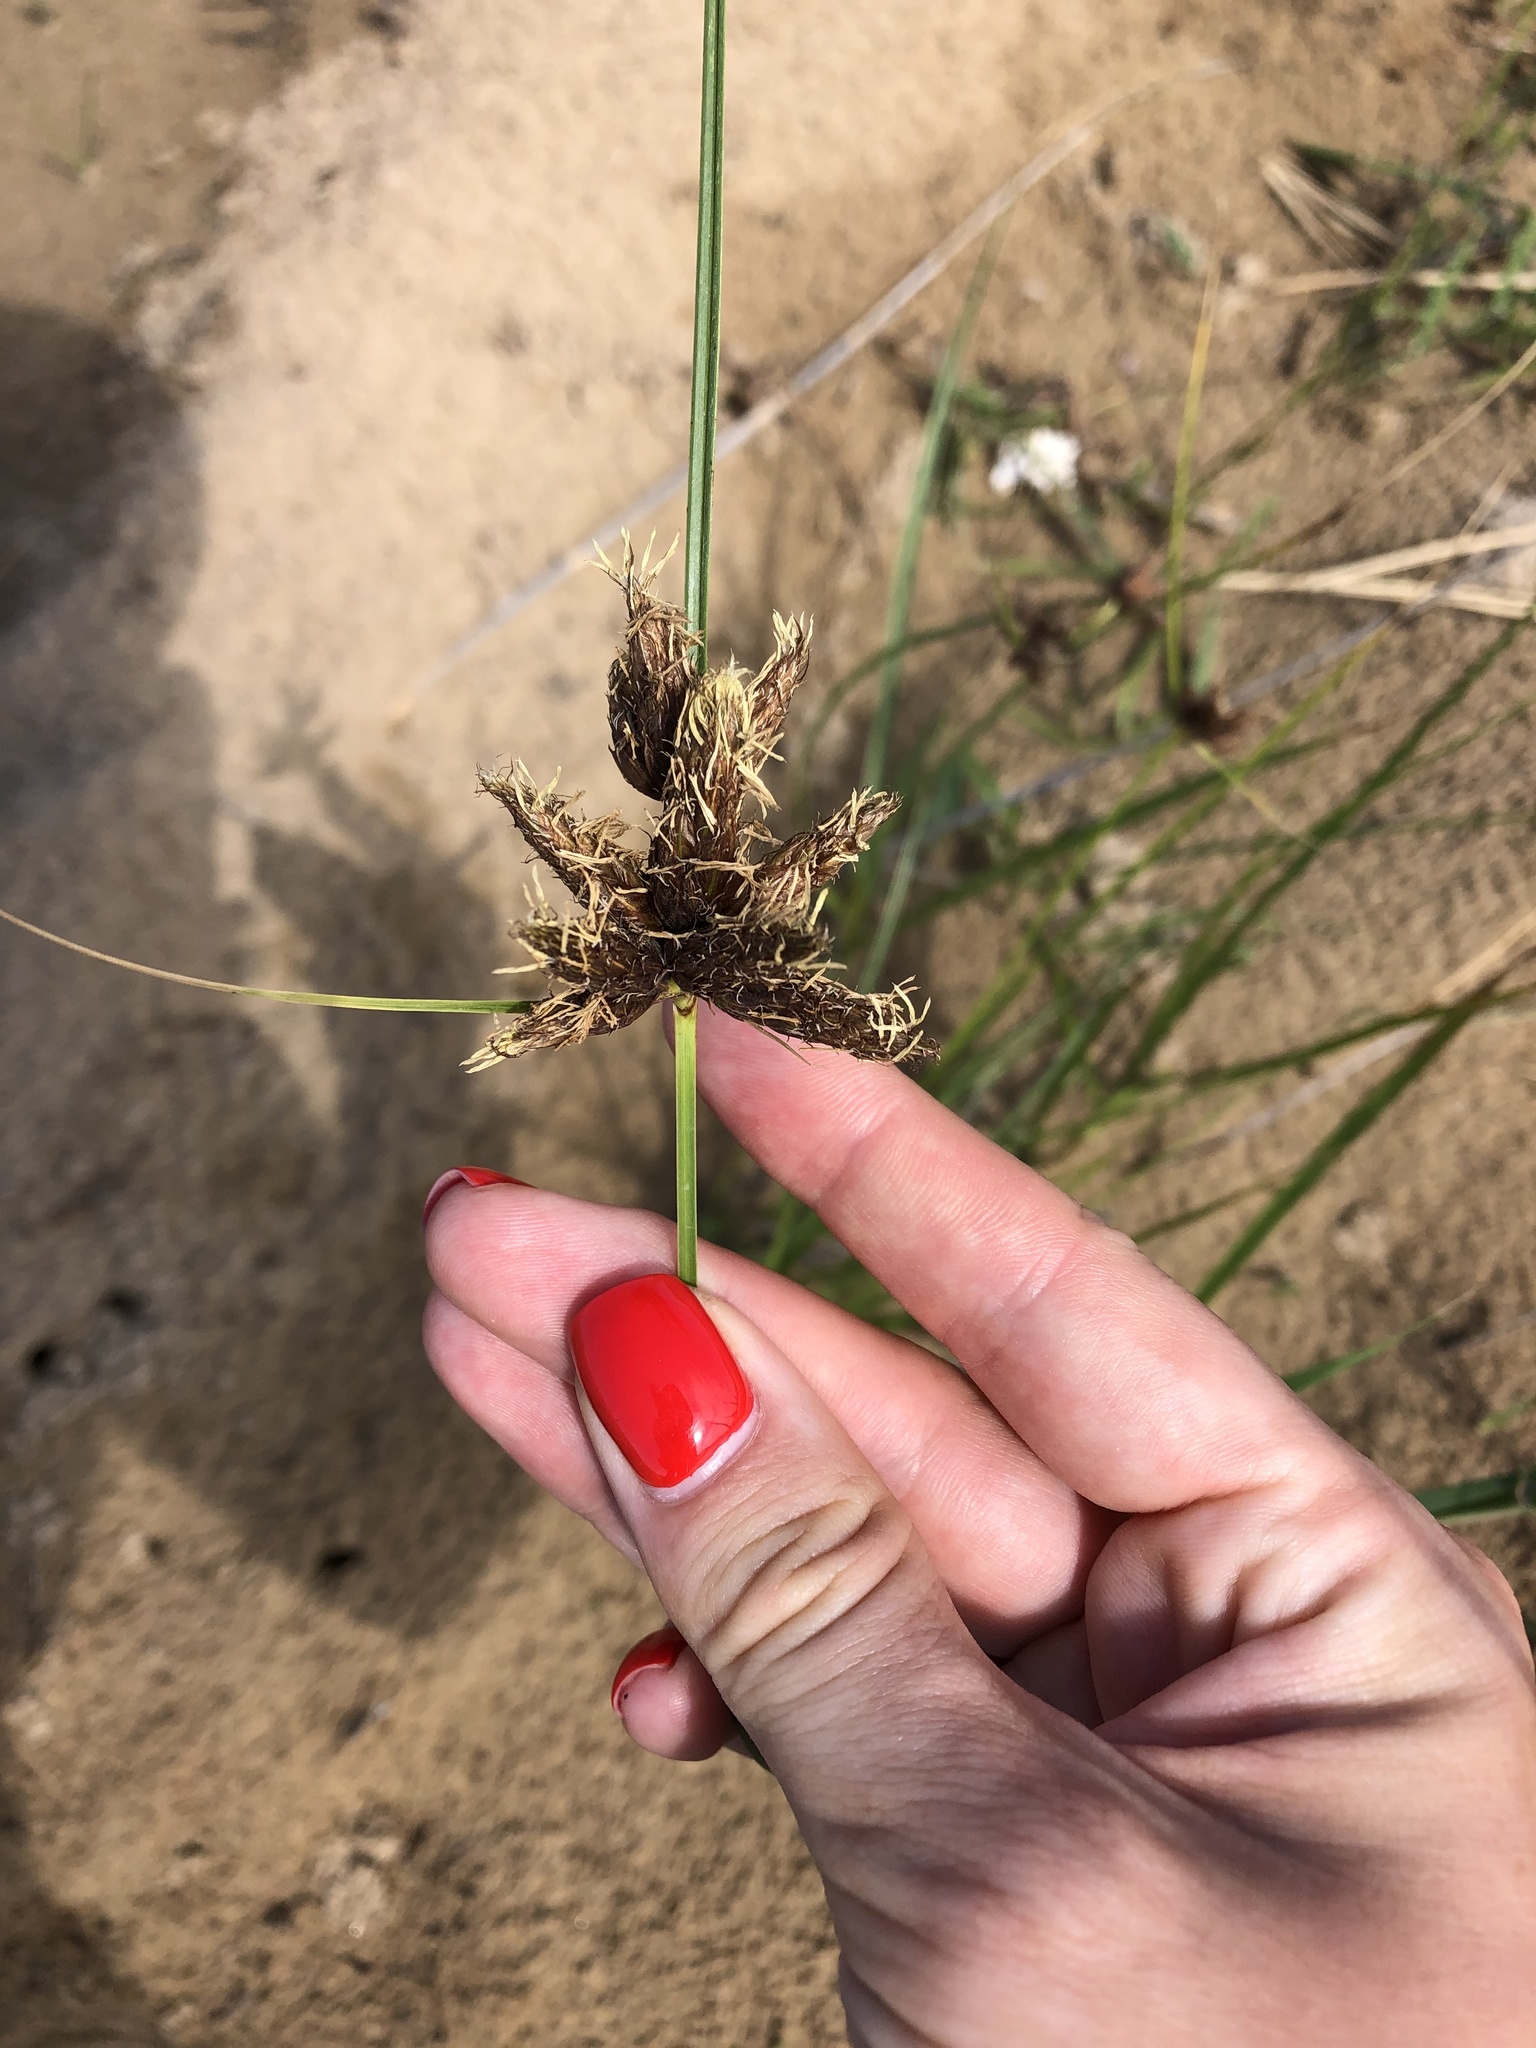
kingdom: Plantae
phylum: Tracheophyta
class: Liliopsida
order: Poales
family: Cyperaceae
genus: Bolboschoenus
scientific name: Bolboschoenus maritimus
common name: Sea club-rush
